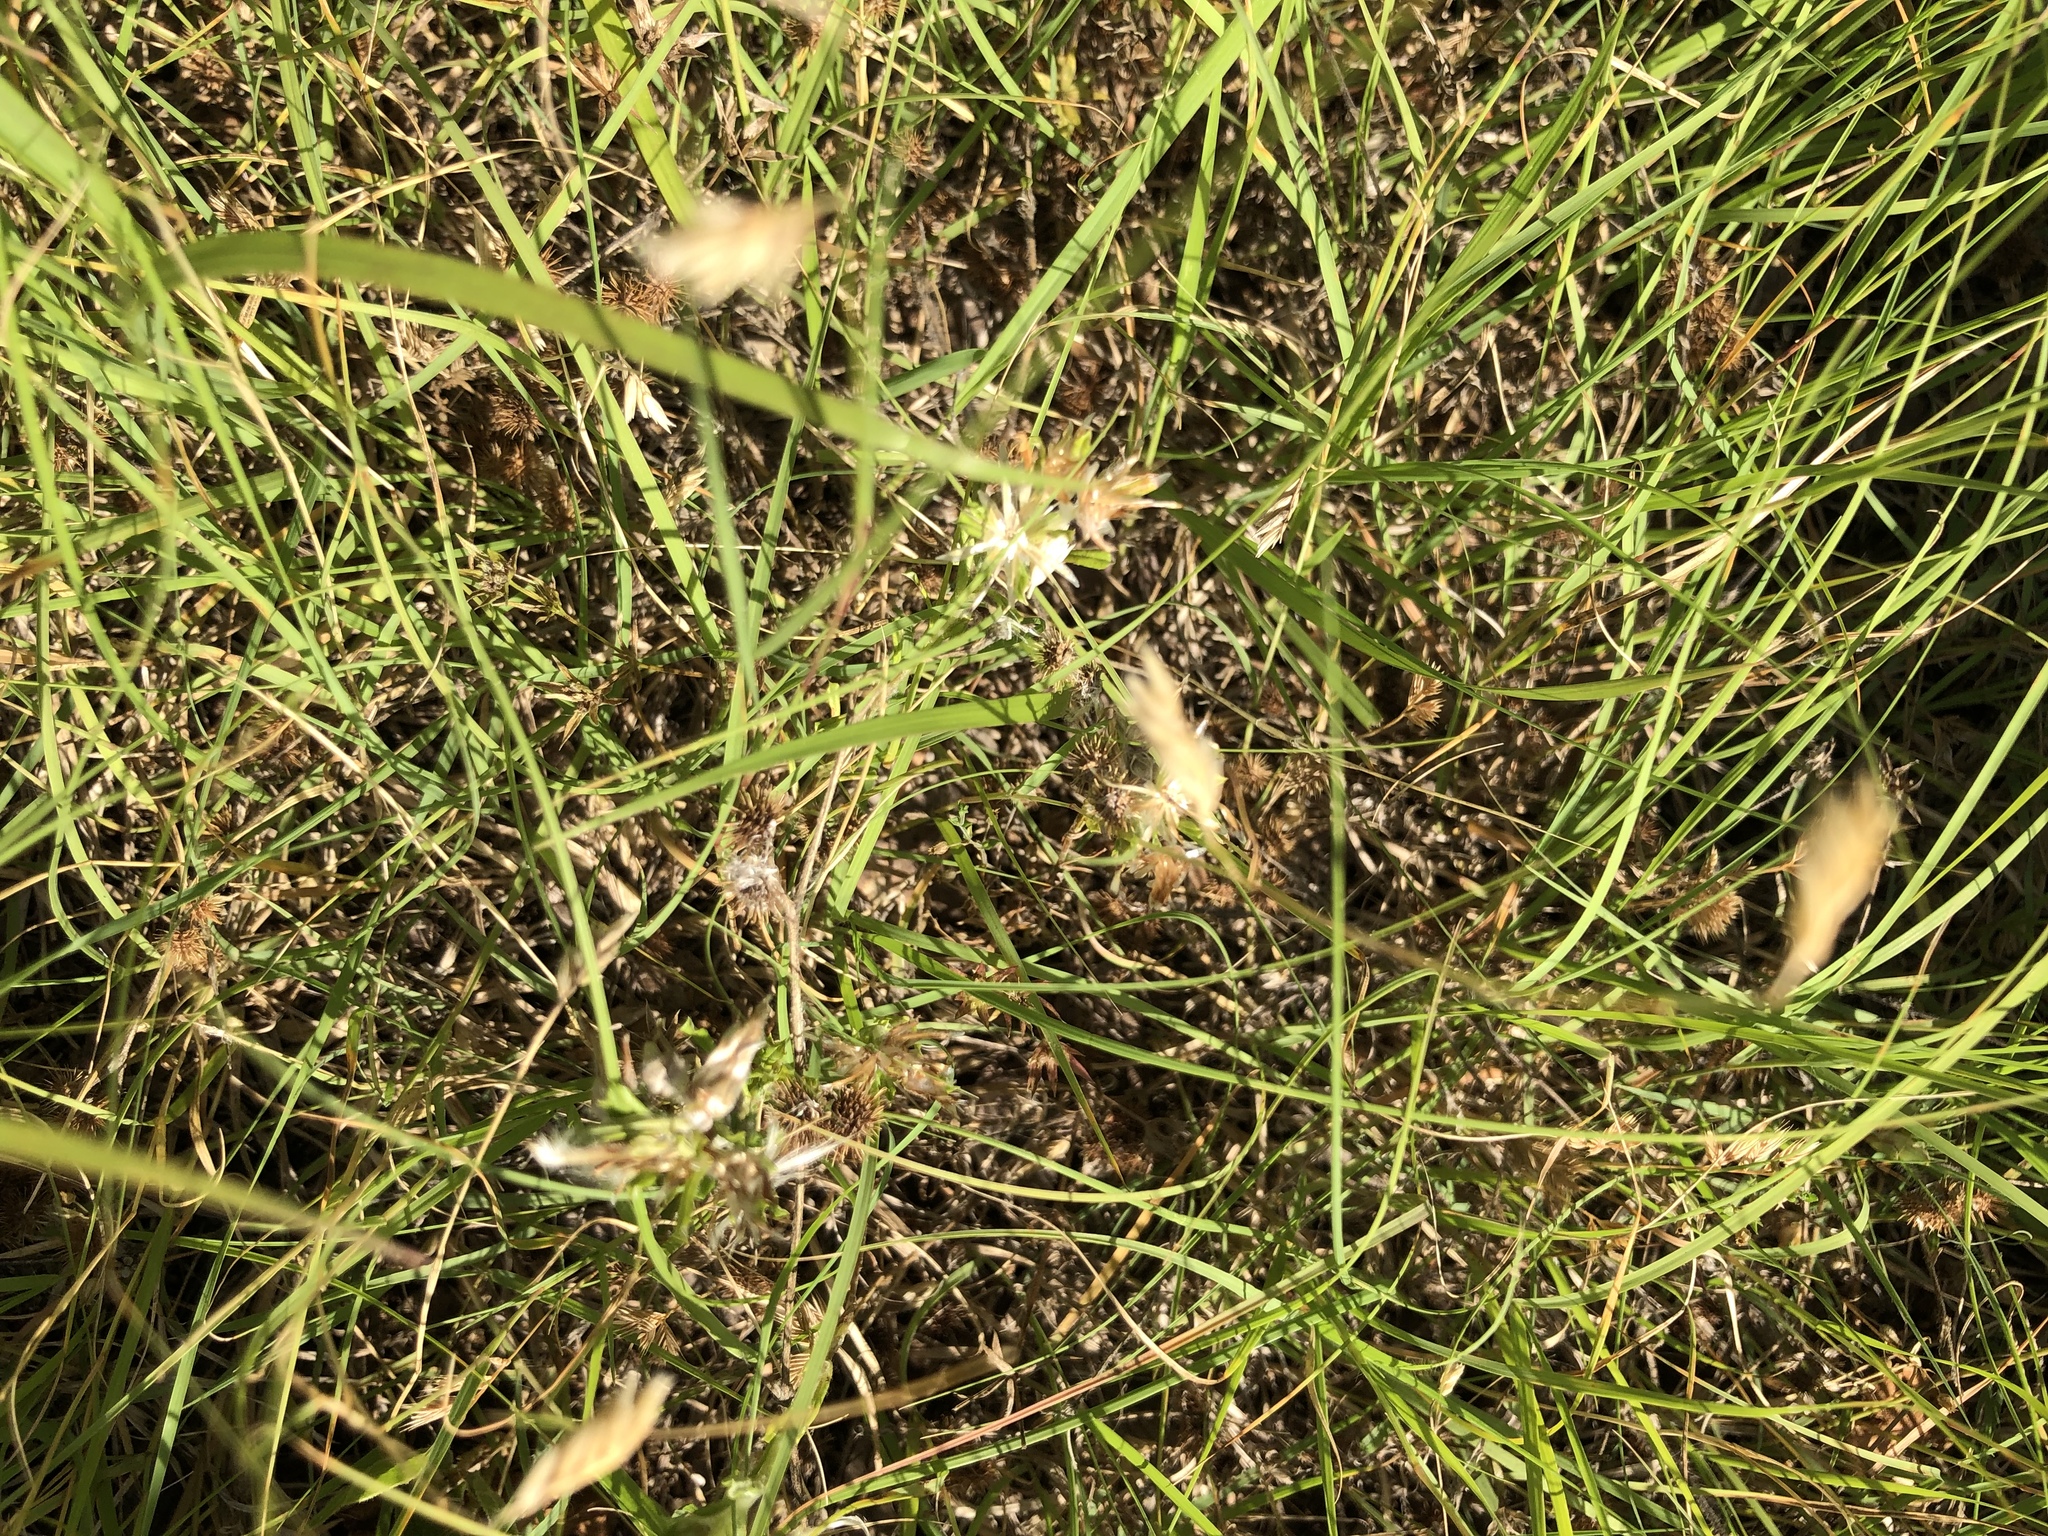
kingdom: Plantae
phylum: Tracheophyta
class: Liliopsida
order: Poales
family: Poaceae
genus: Bouteloua
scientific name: Bouteloua dactyloides
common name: Buffalo grass
